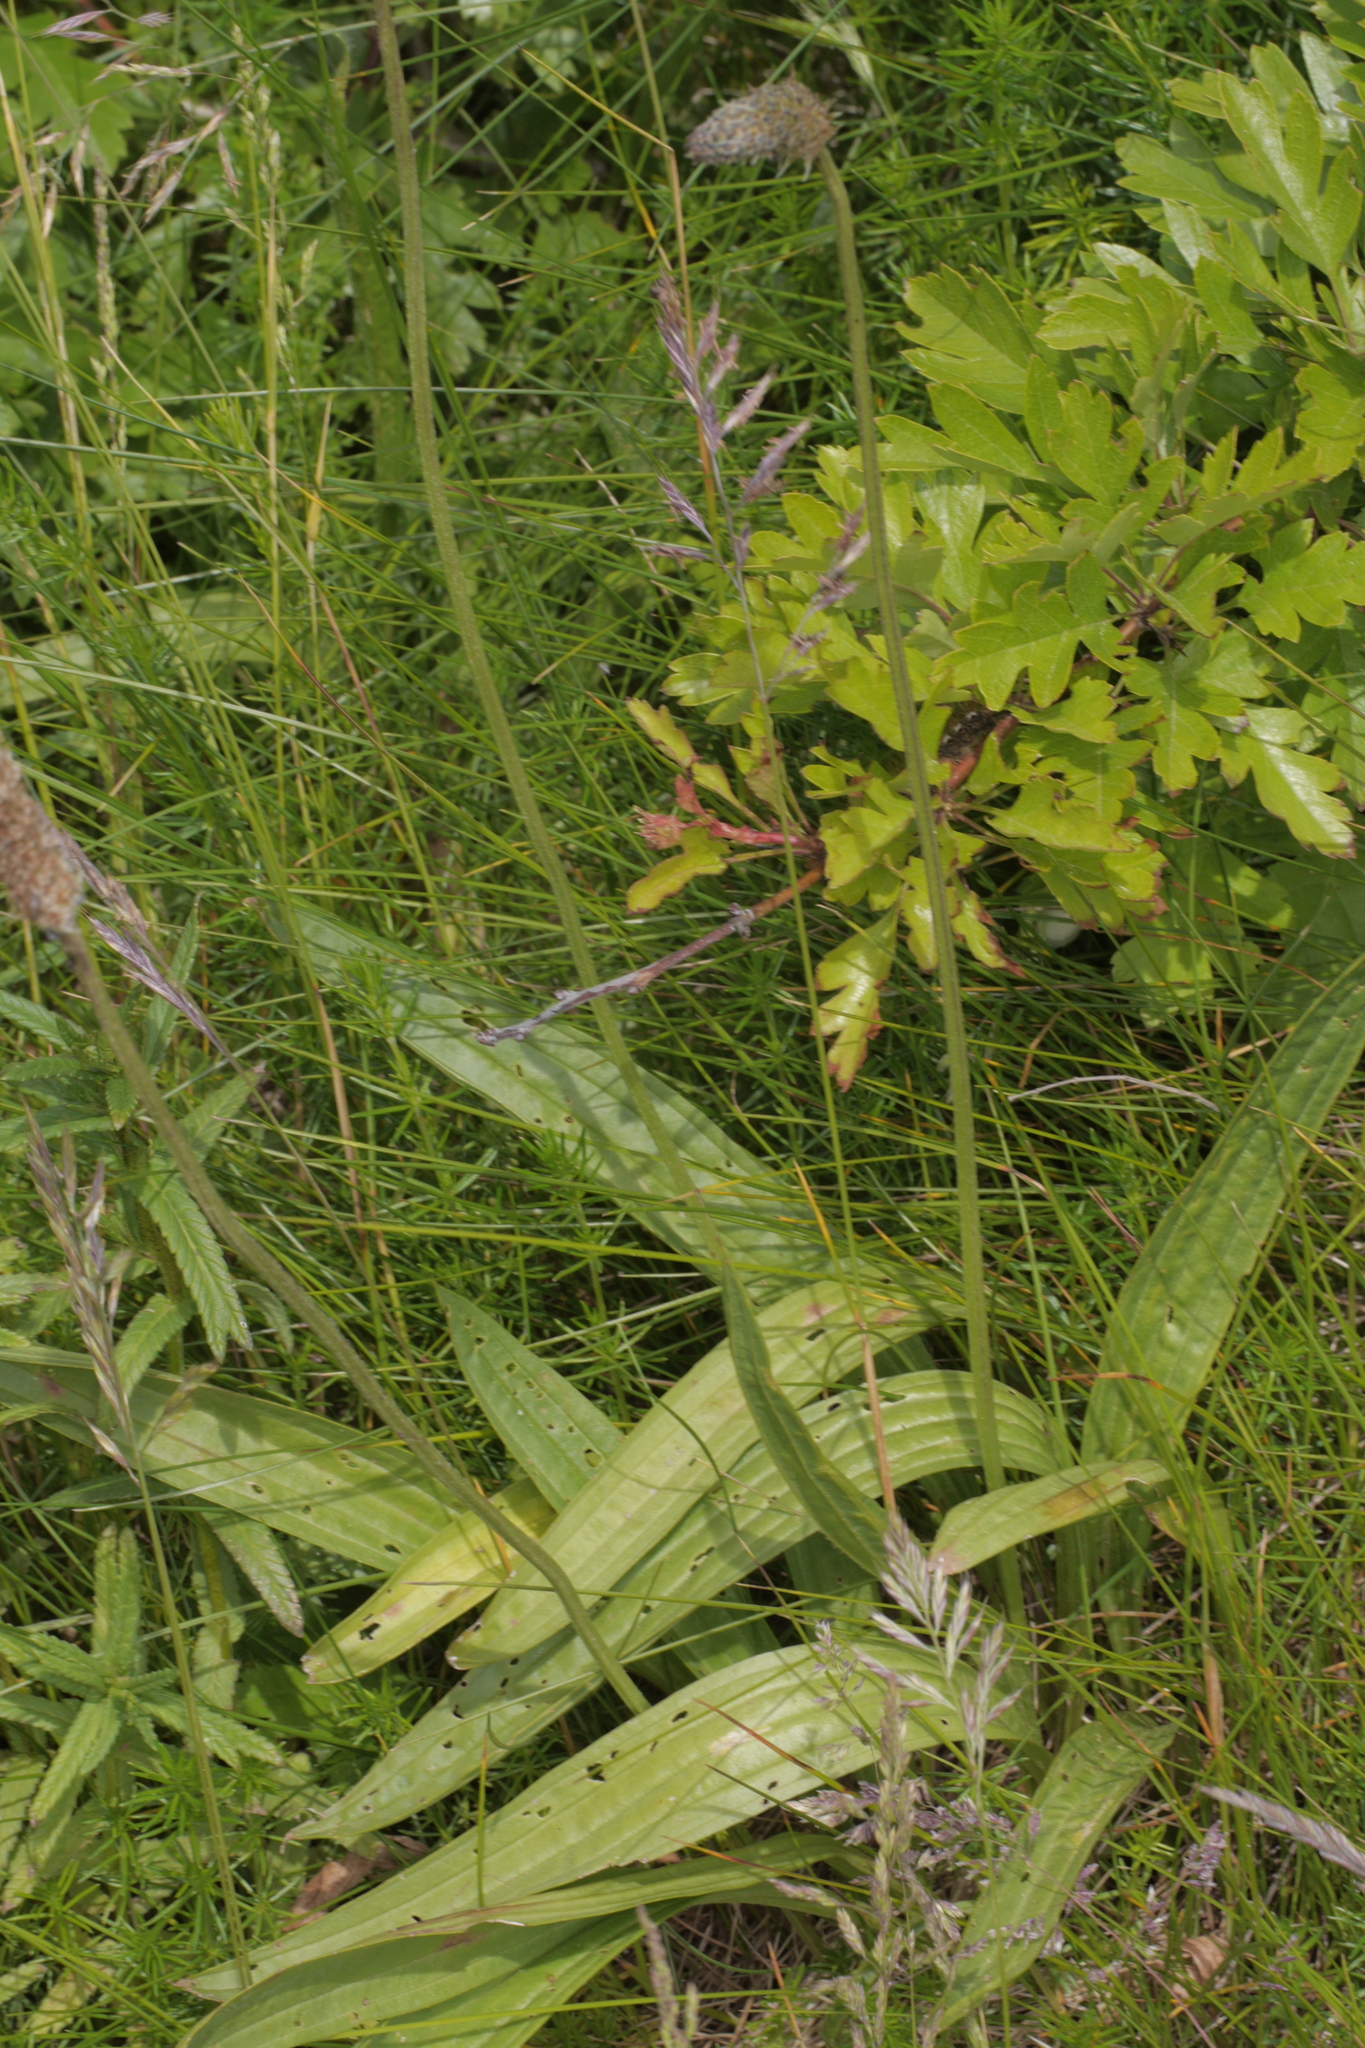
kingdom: Plantae
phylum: Tracheophyta
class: Magnoliopsida
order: Lamiales
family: Plantaginaceae
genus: Plantago
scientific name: Plantago lanceolata
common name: Ribwort plantain
